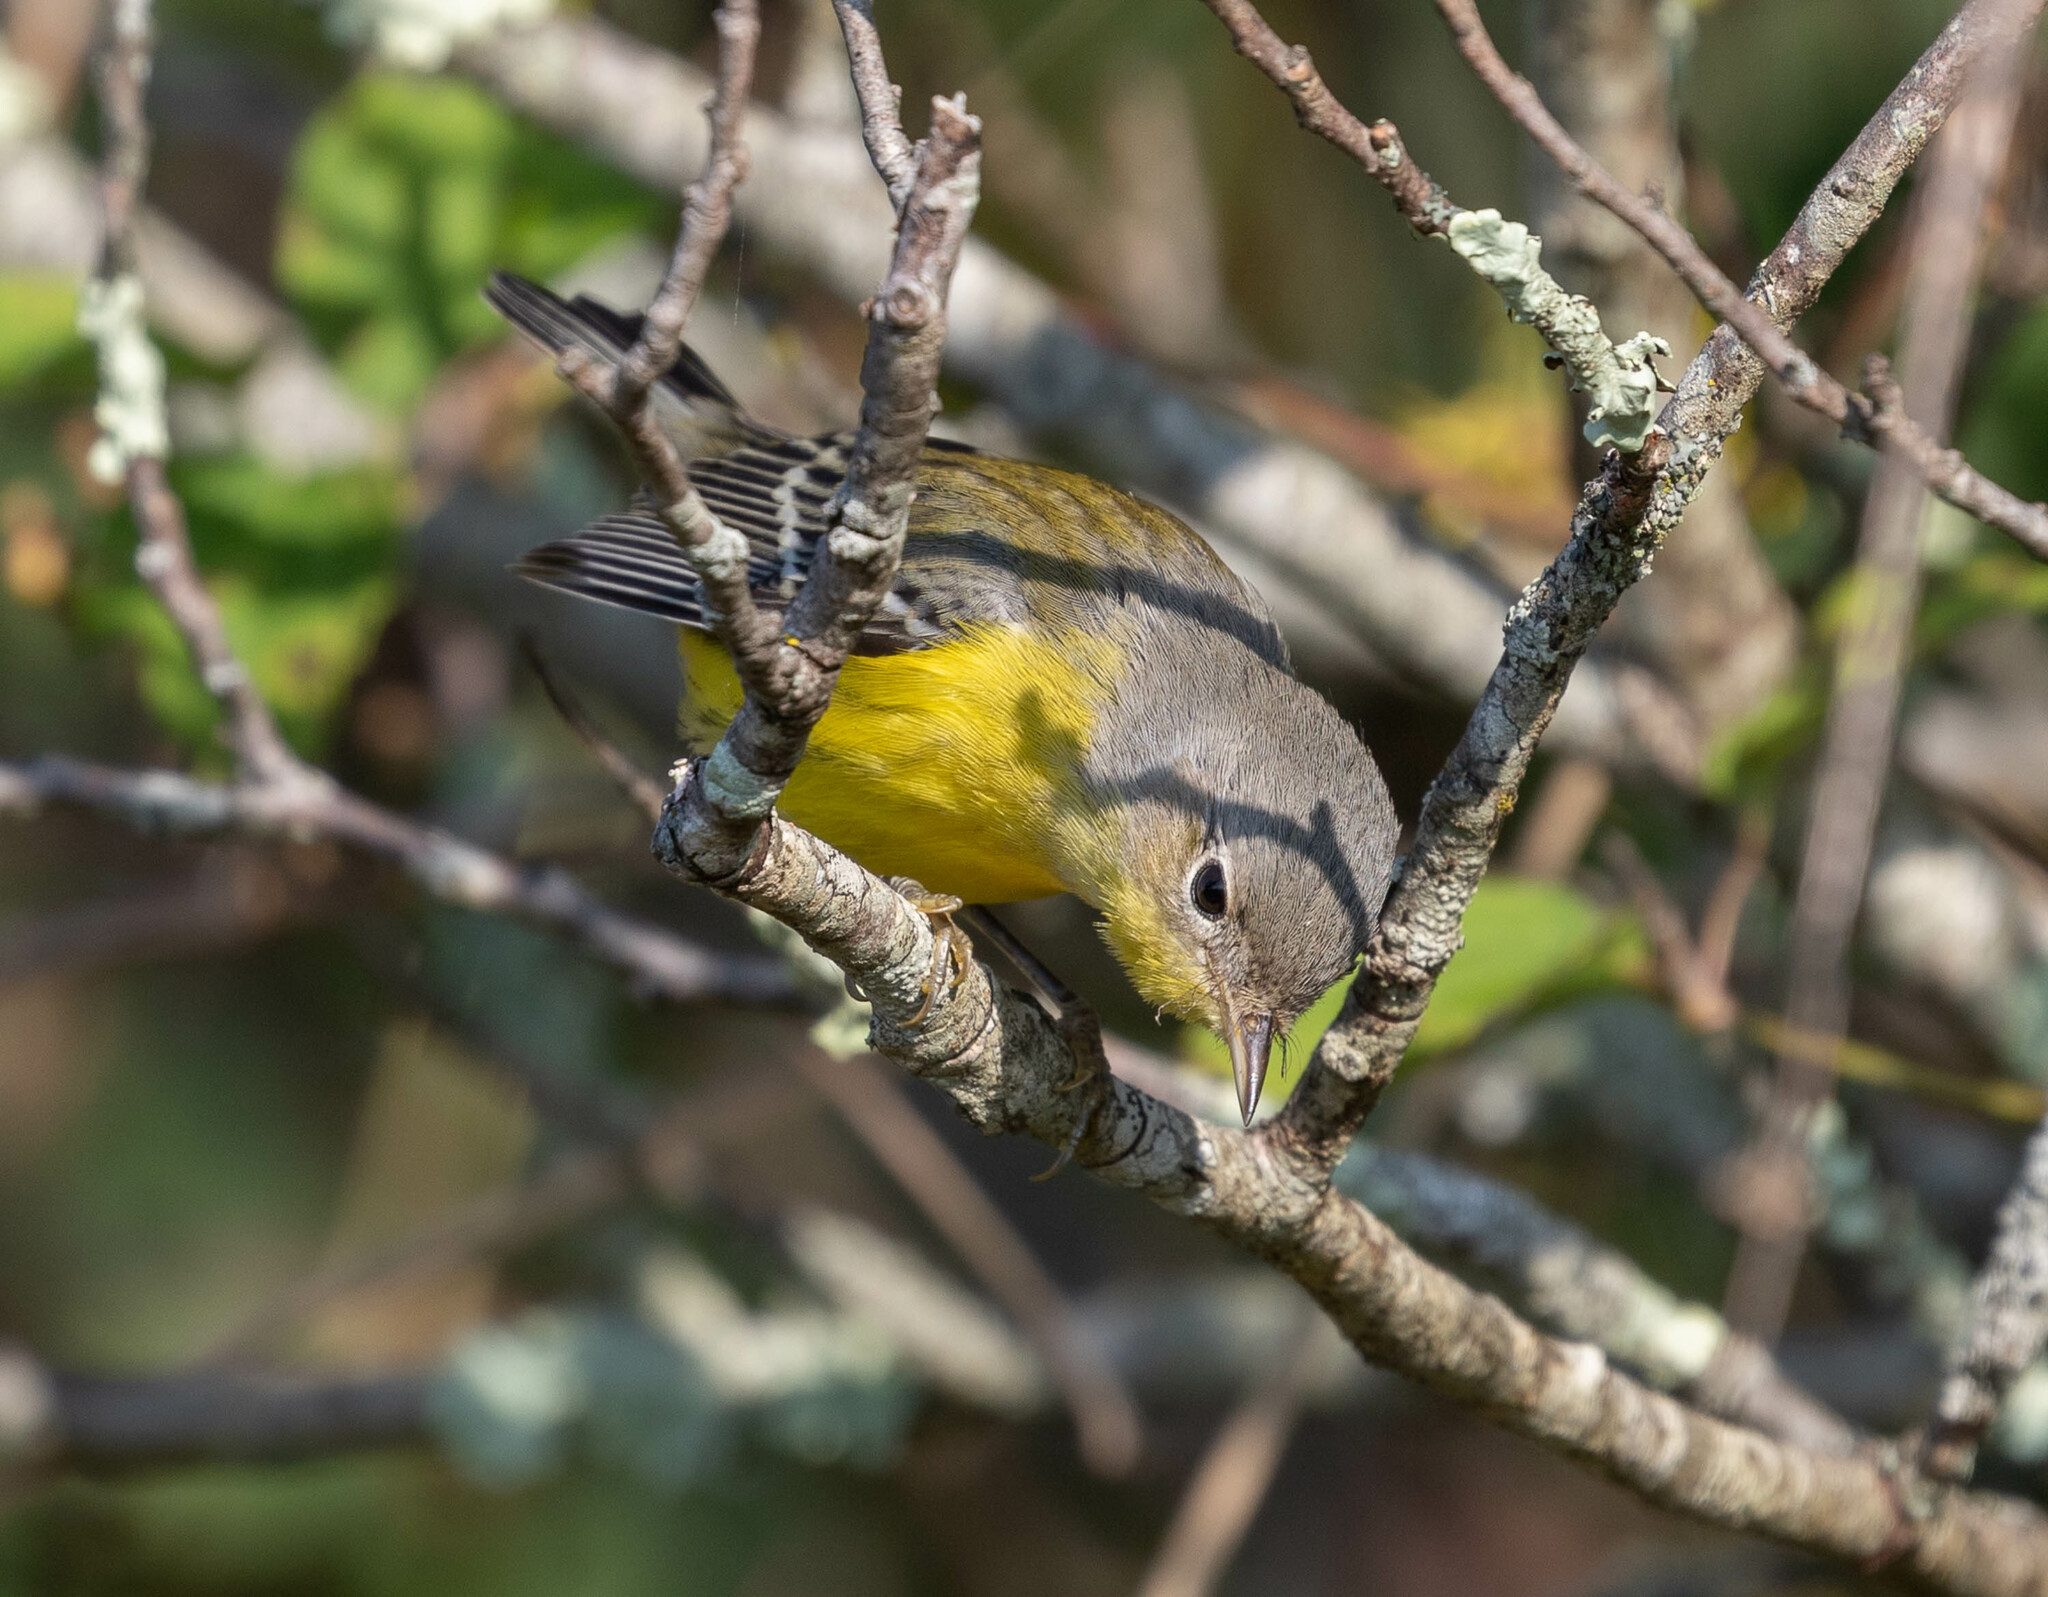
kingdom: Animalia
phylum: Chordata
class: Aves
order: Passeriformes
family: Parulidae
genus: Setophaga
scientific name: Setophaga magnolia
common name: Magnolia warbler
